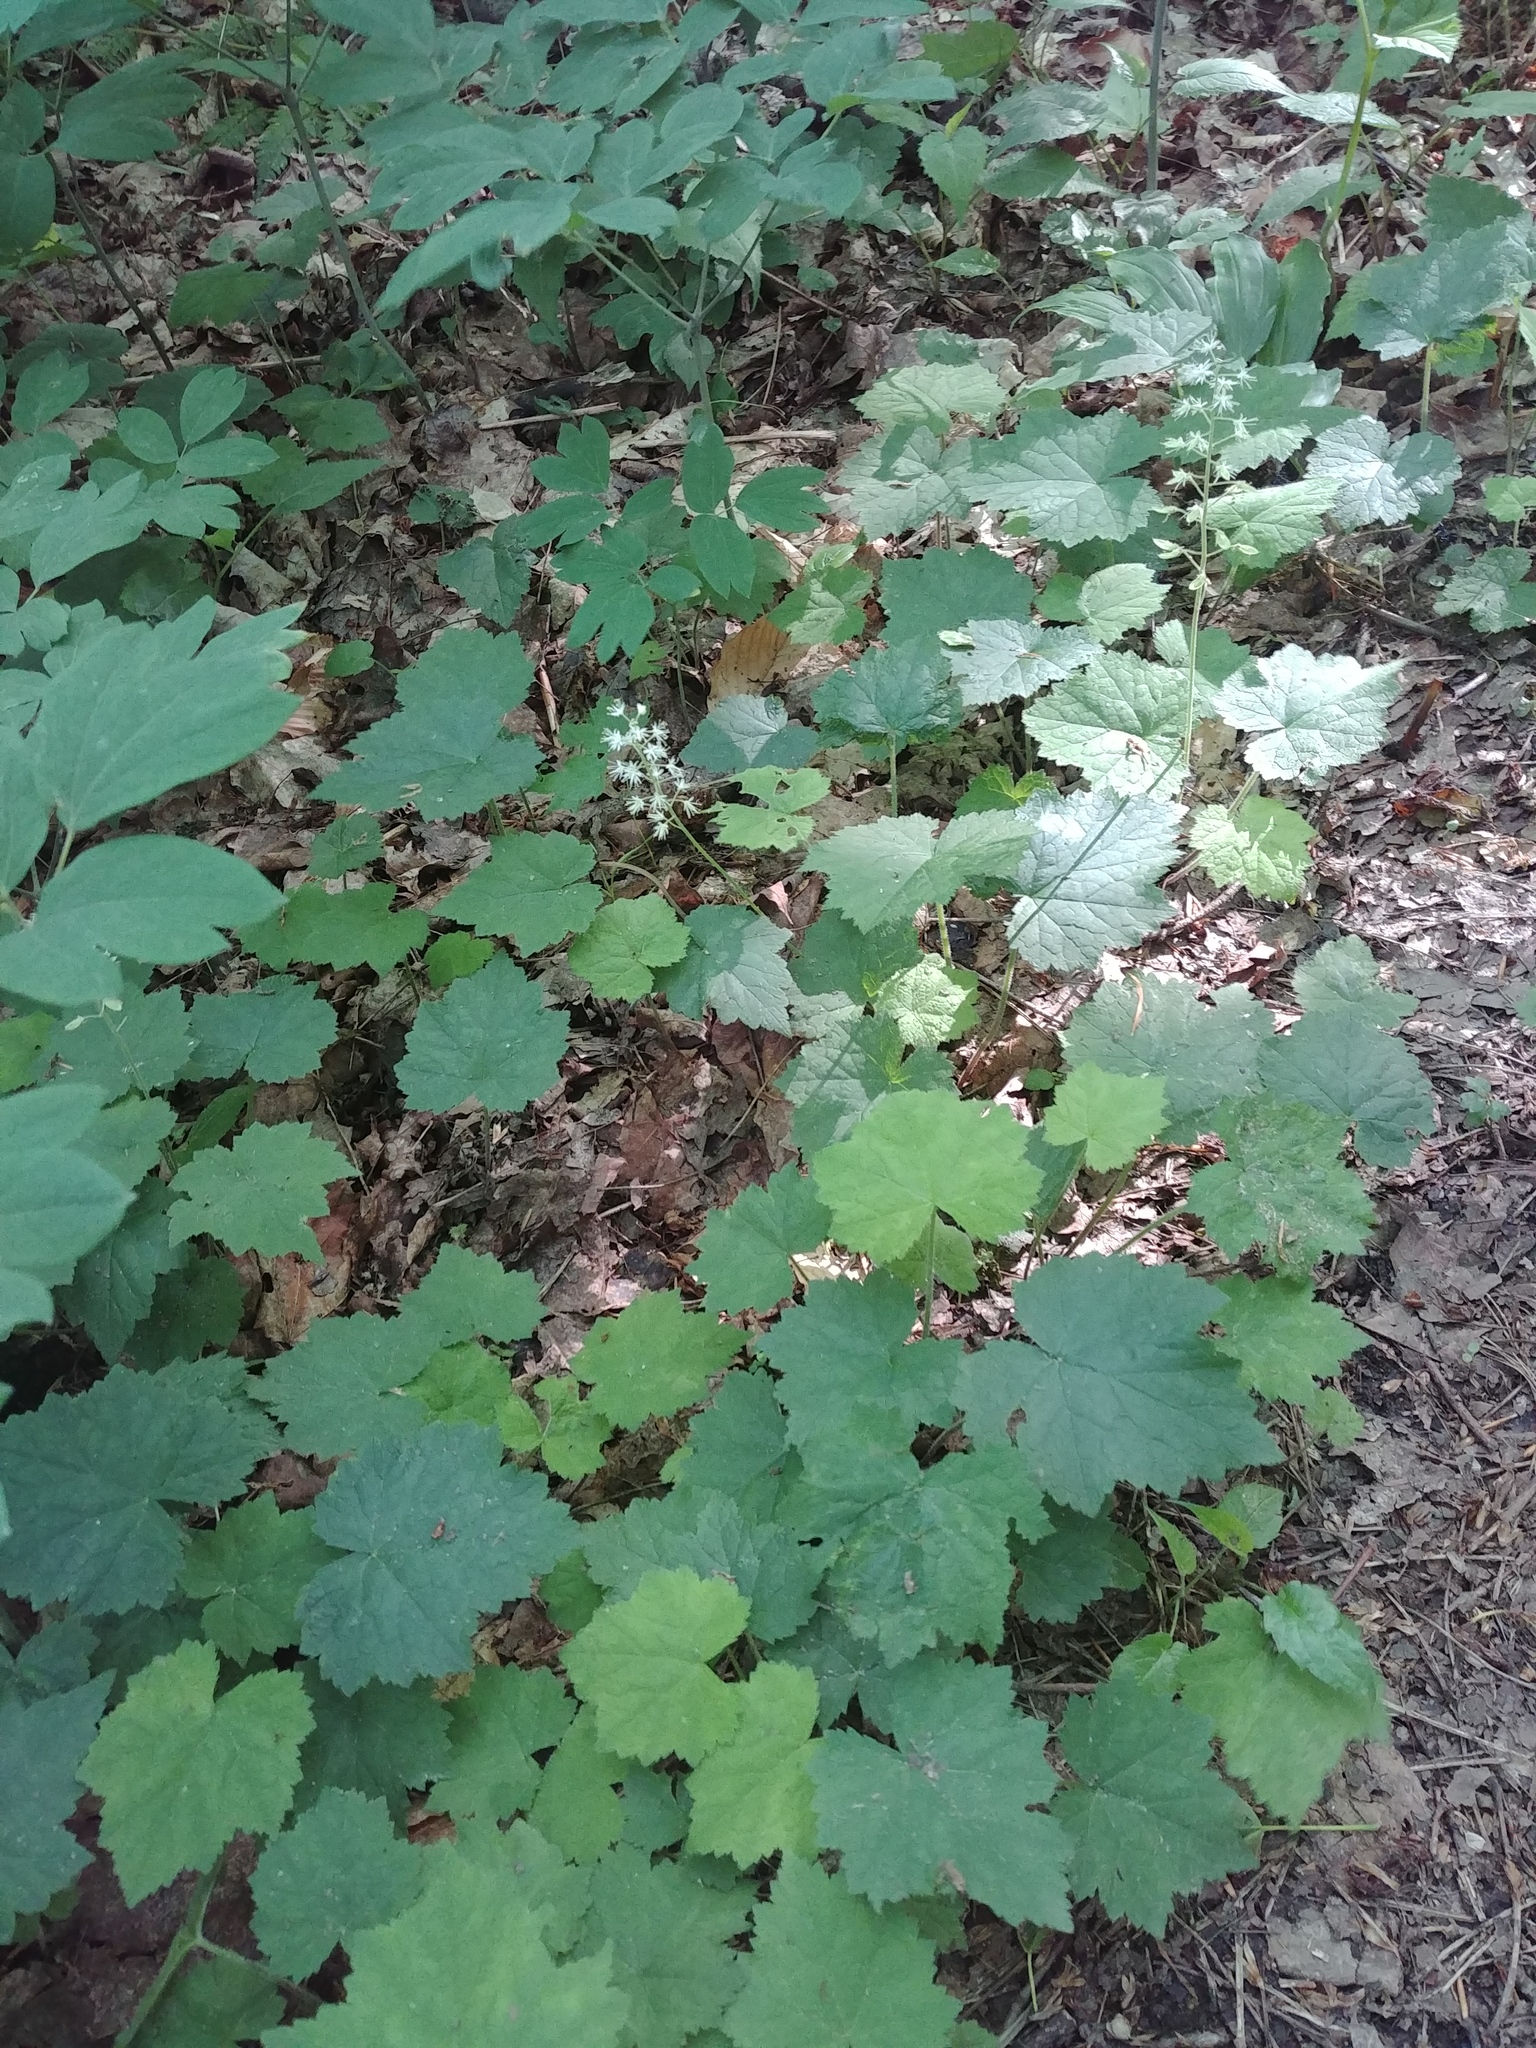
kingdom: Plantae
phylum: Tracheophyta
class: Magnoliopsida
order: Saxifragales
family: Saxifragaceae
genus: Tiarella
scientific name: Tiarella stolonifera
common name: Stoloniferous foamflower
